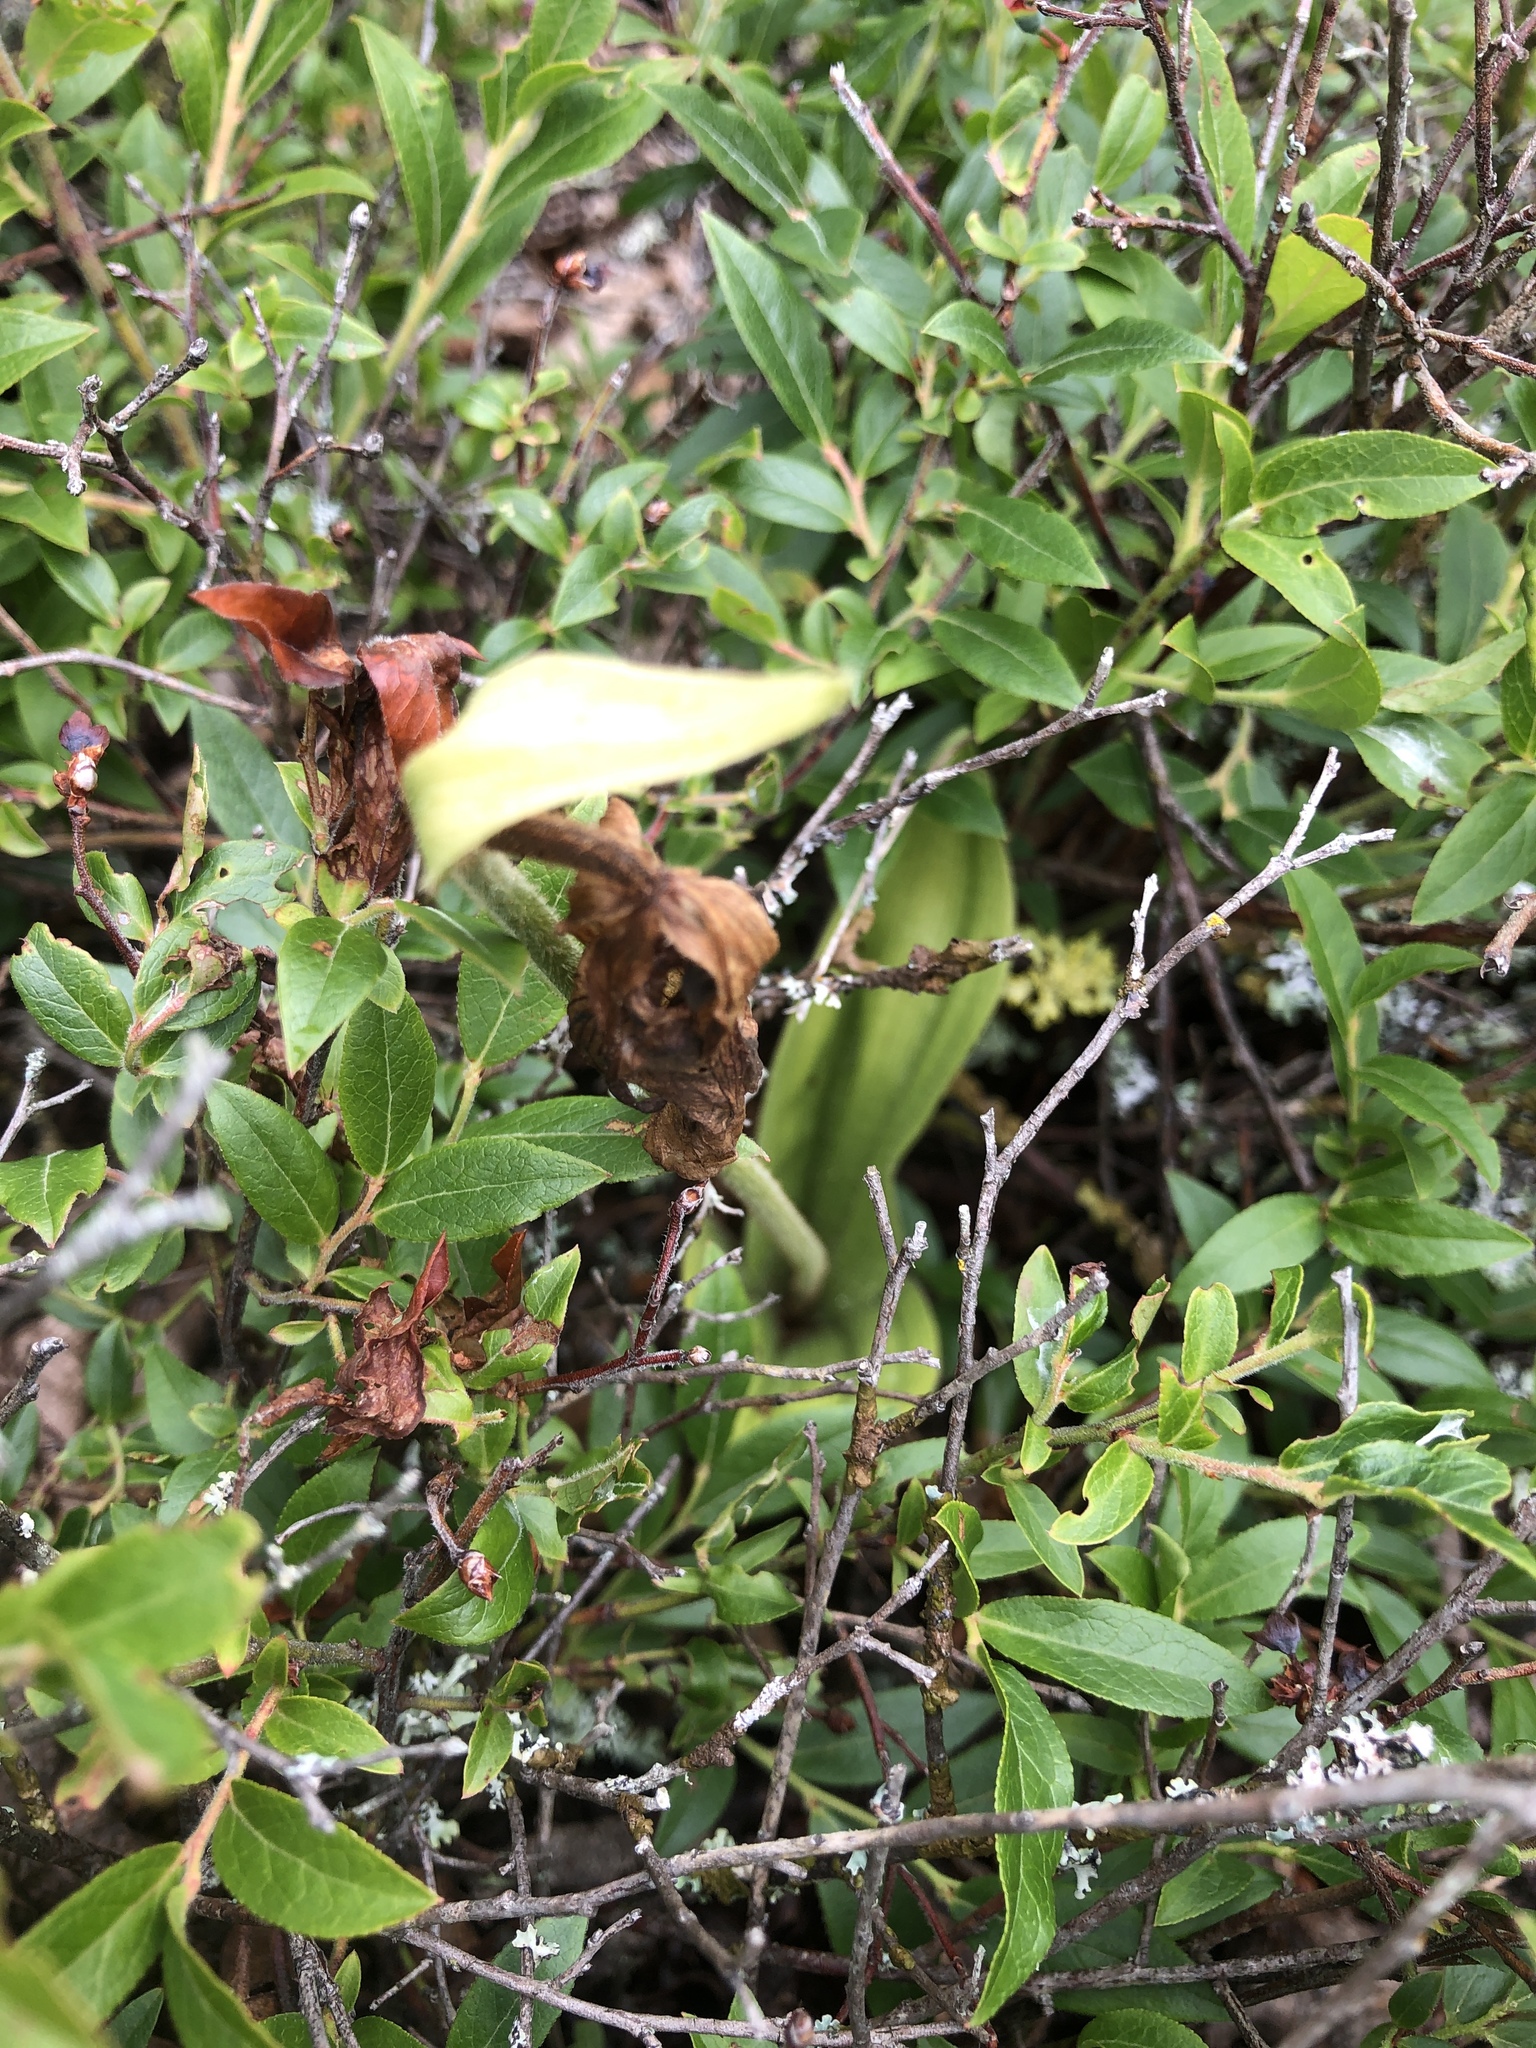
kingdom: Plantae
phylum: Tracheophyta
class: Liliopsida
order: Asparagales
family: Orchidaceae
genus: Cypripedium
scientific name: Cypripedium acaule
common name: Pink lady's-slipper
